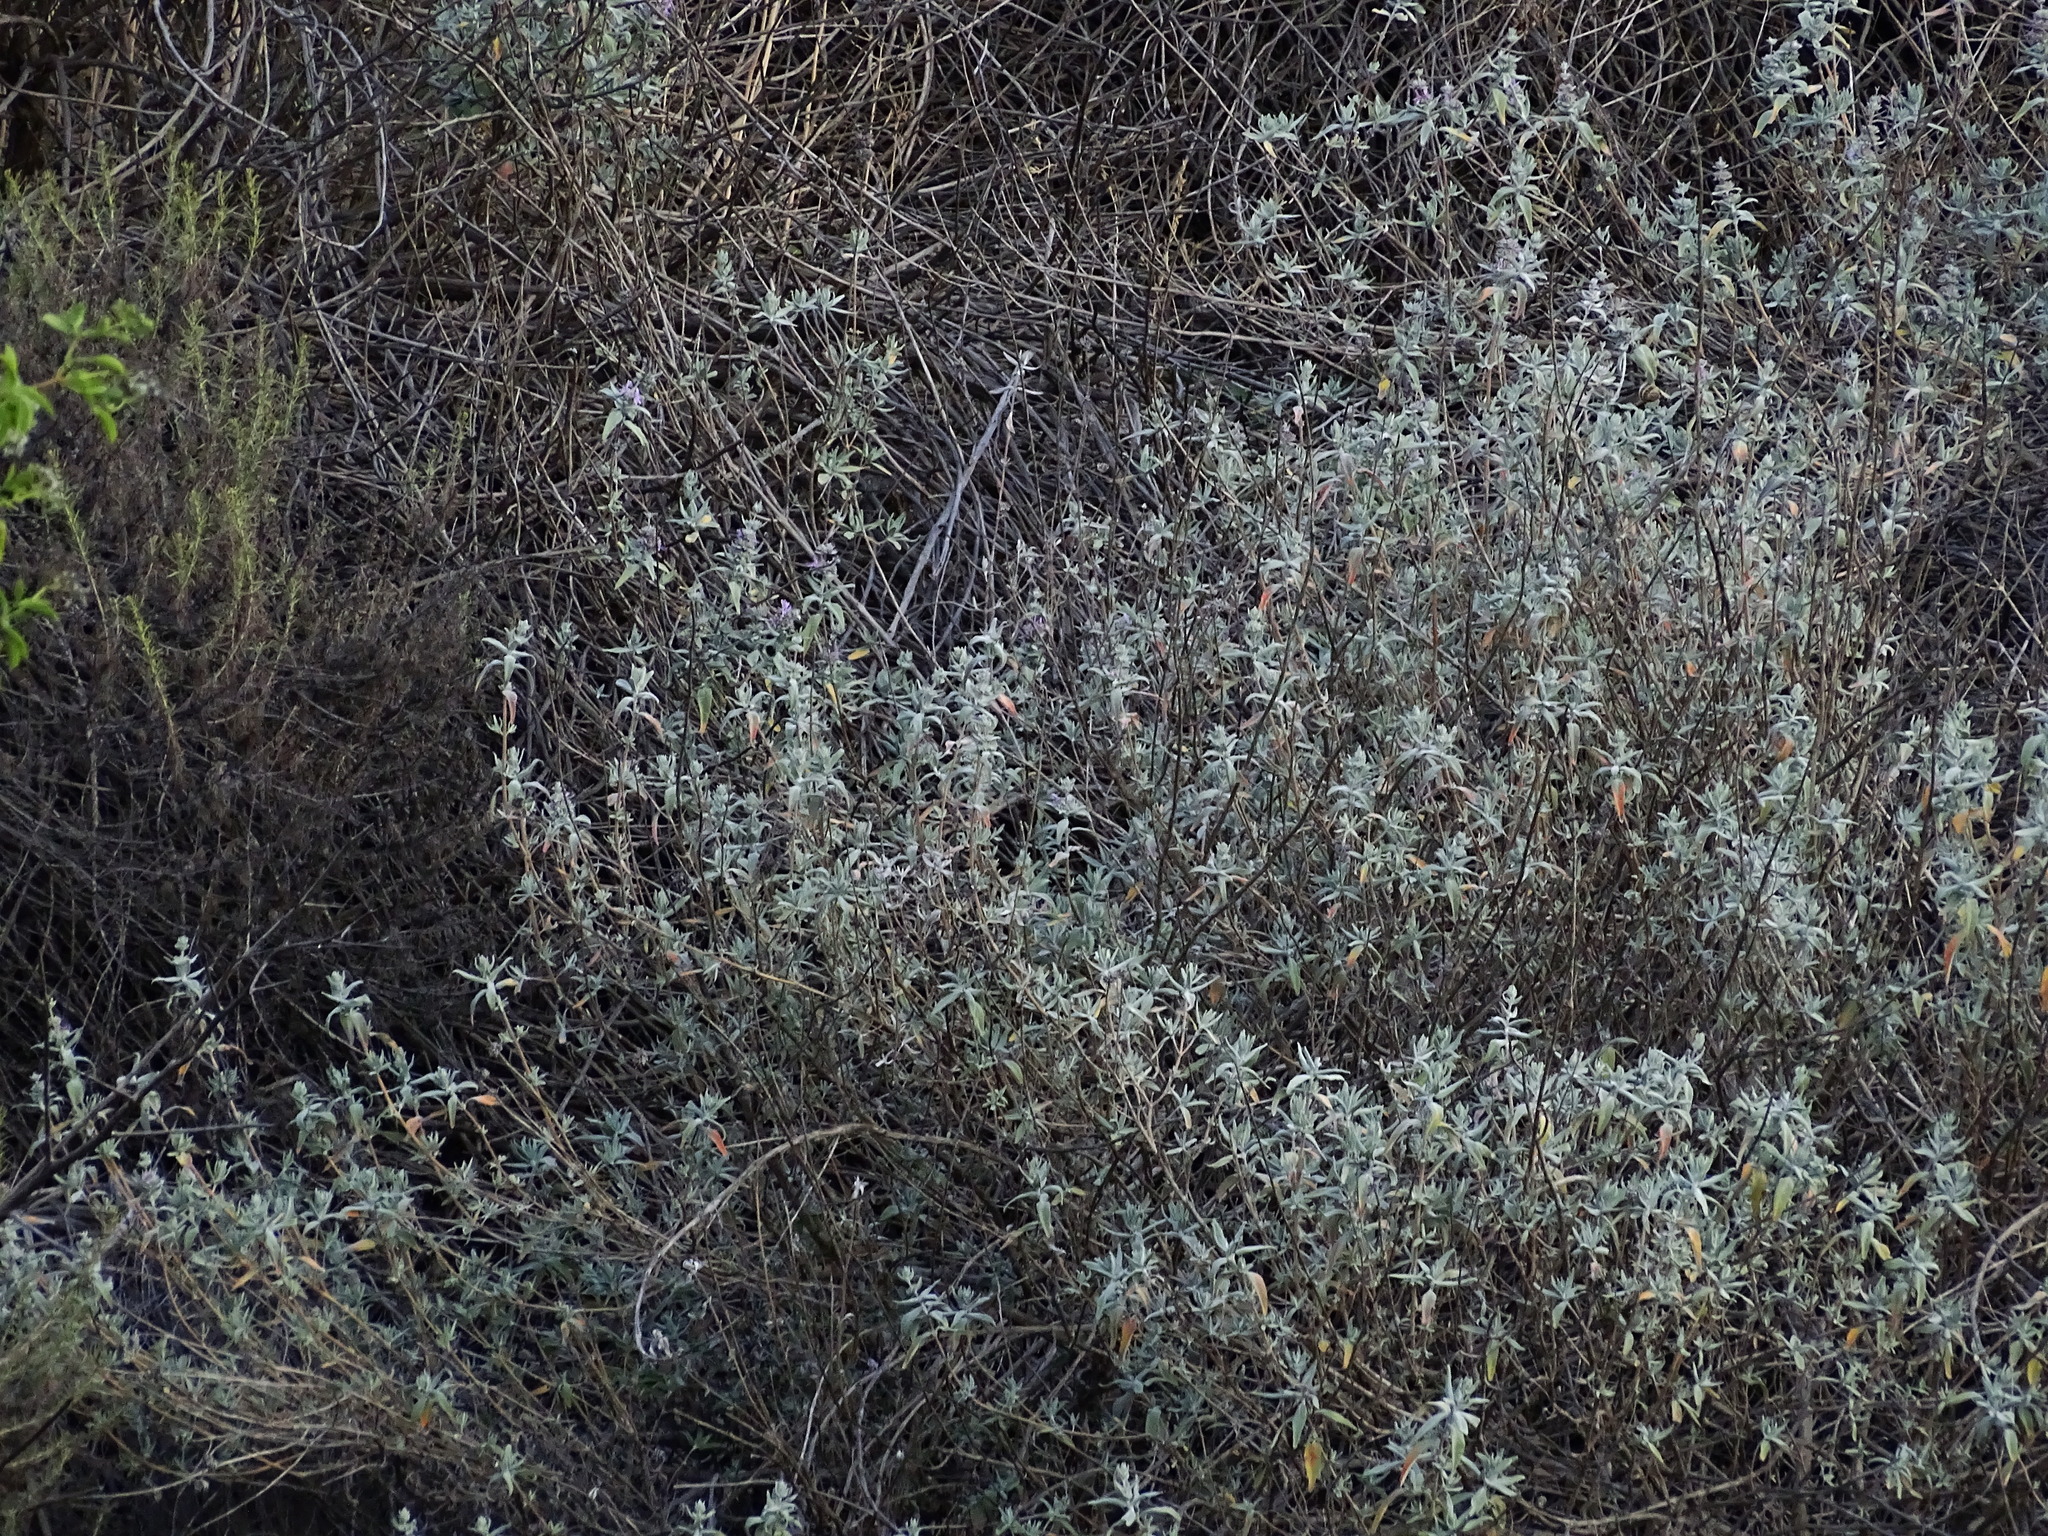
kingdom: Plantae
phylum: Tracheophyta
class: Magnoliopsida
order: Lamiales
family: Lamiaceae
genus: Salvia
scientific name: Salvia leucophylla
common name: Purple sage
